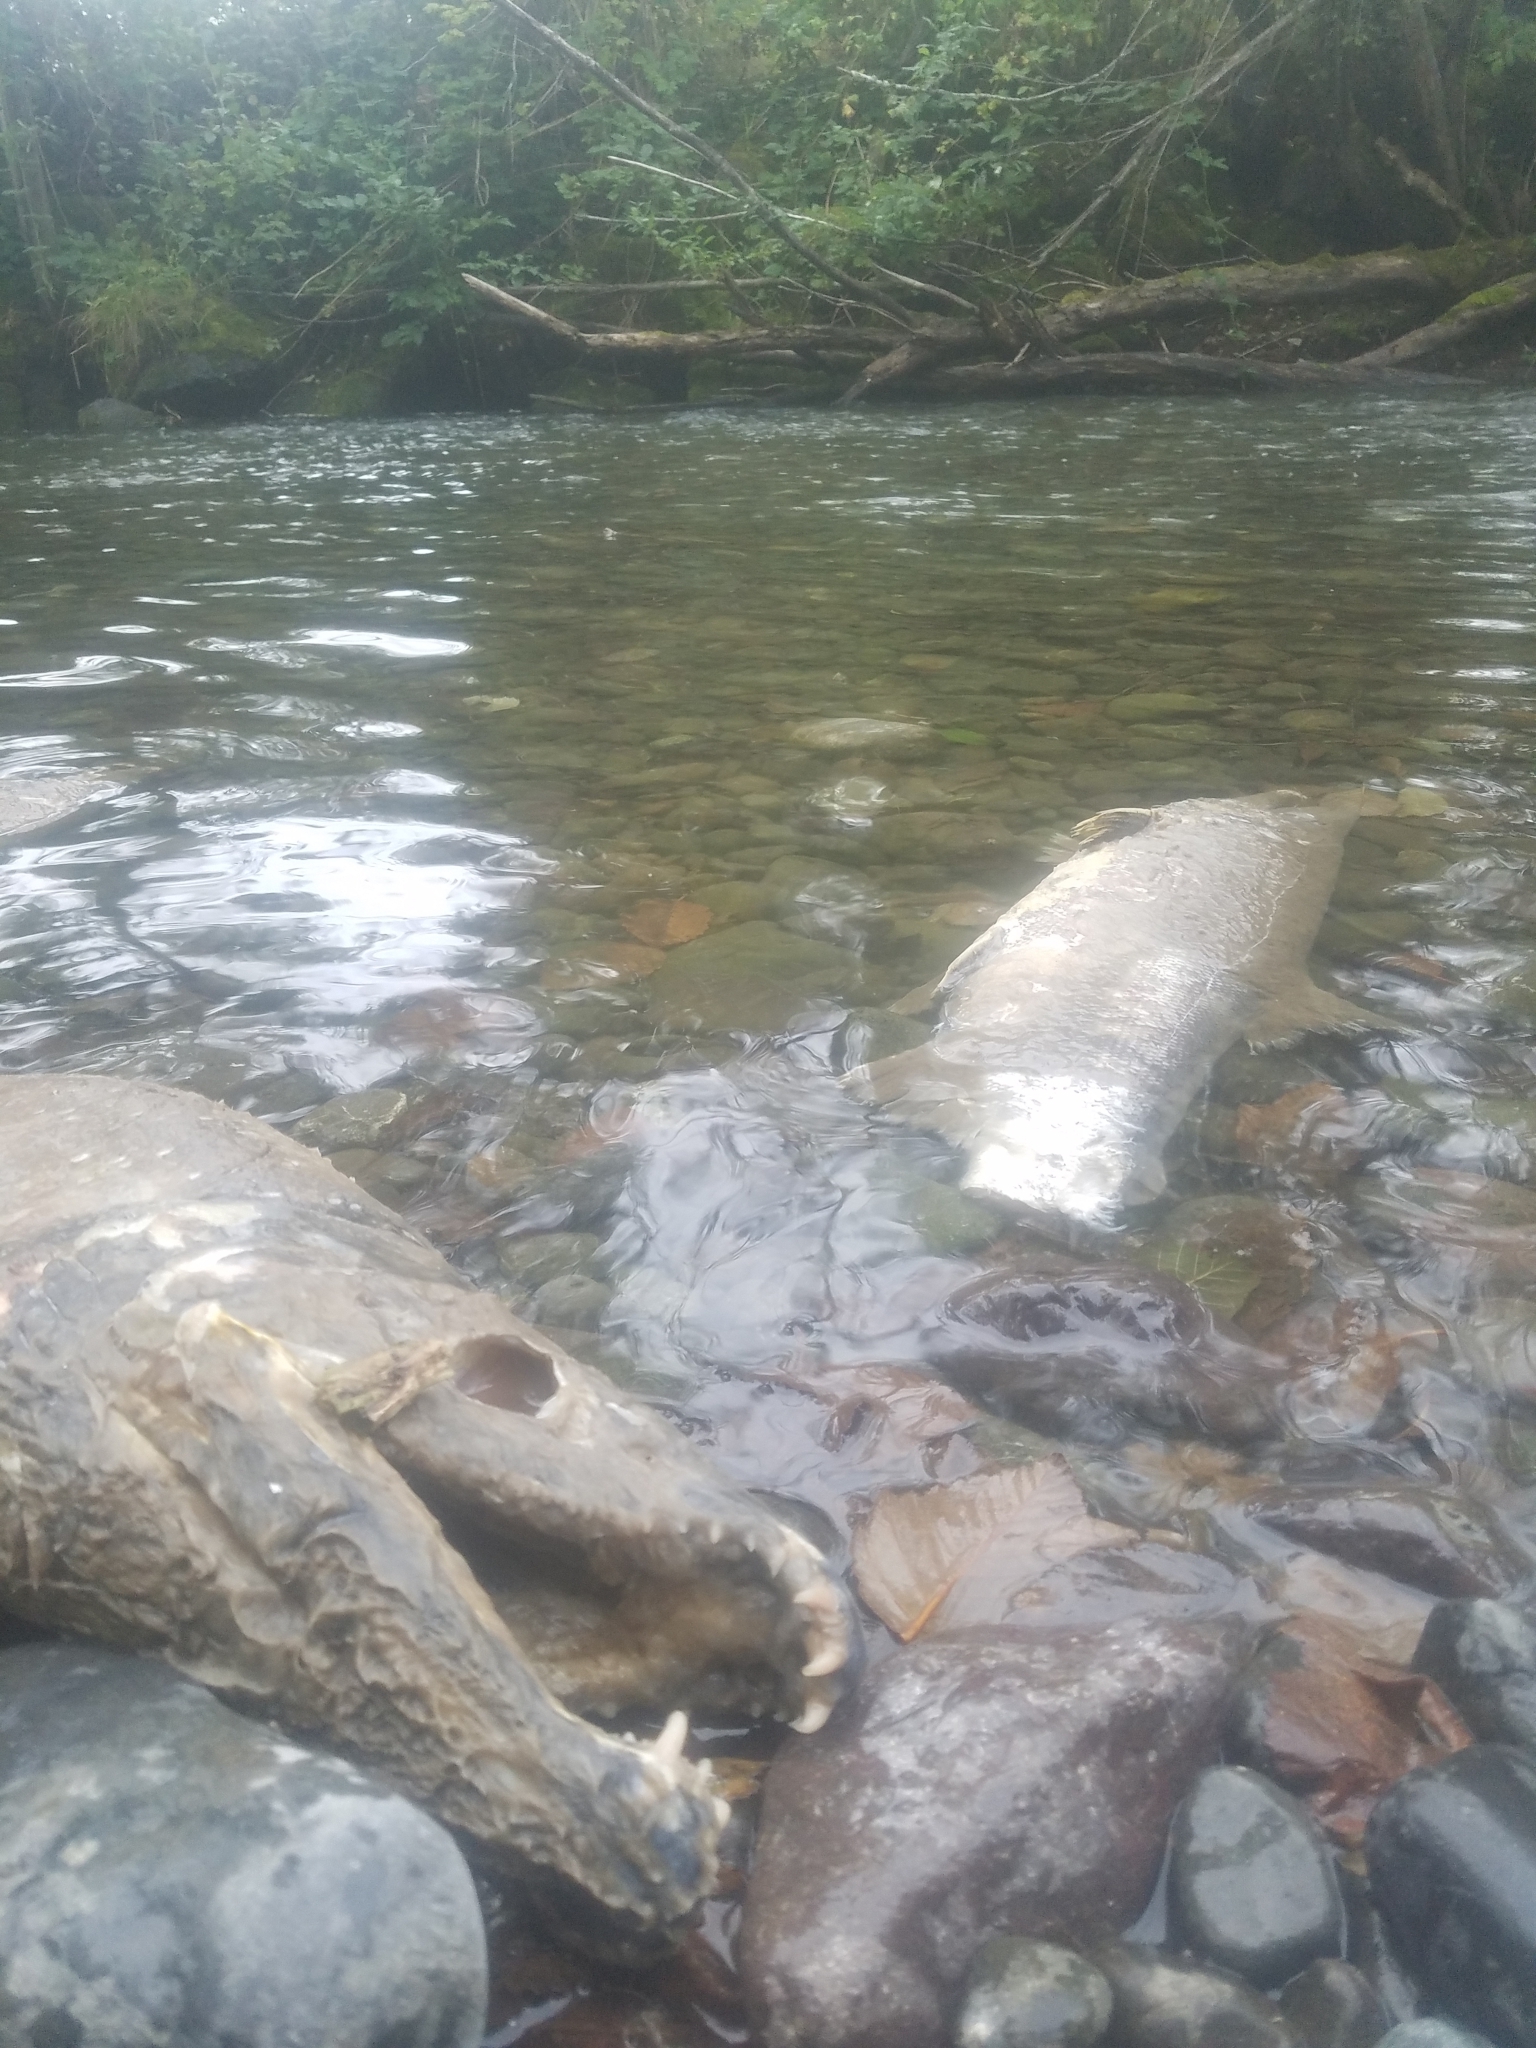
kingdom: Animalia
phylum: Chordata
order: Salmoniformes
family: Salmonidae
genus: Oncorhynchus
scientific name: Oncorhynchus keta
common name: Chum salmon
